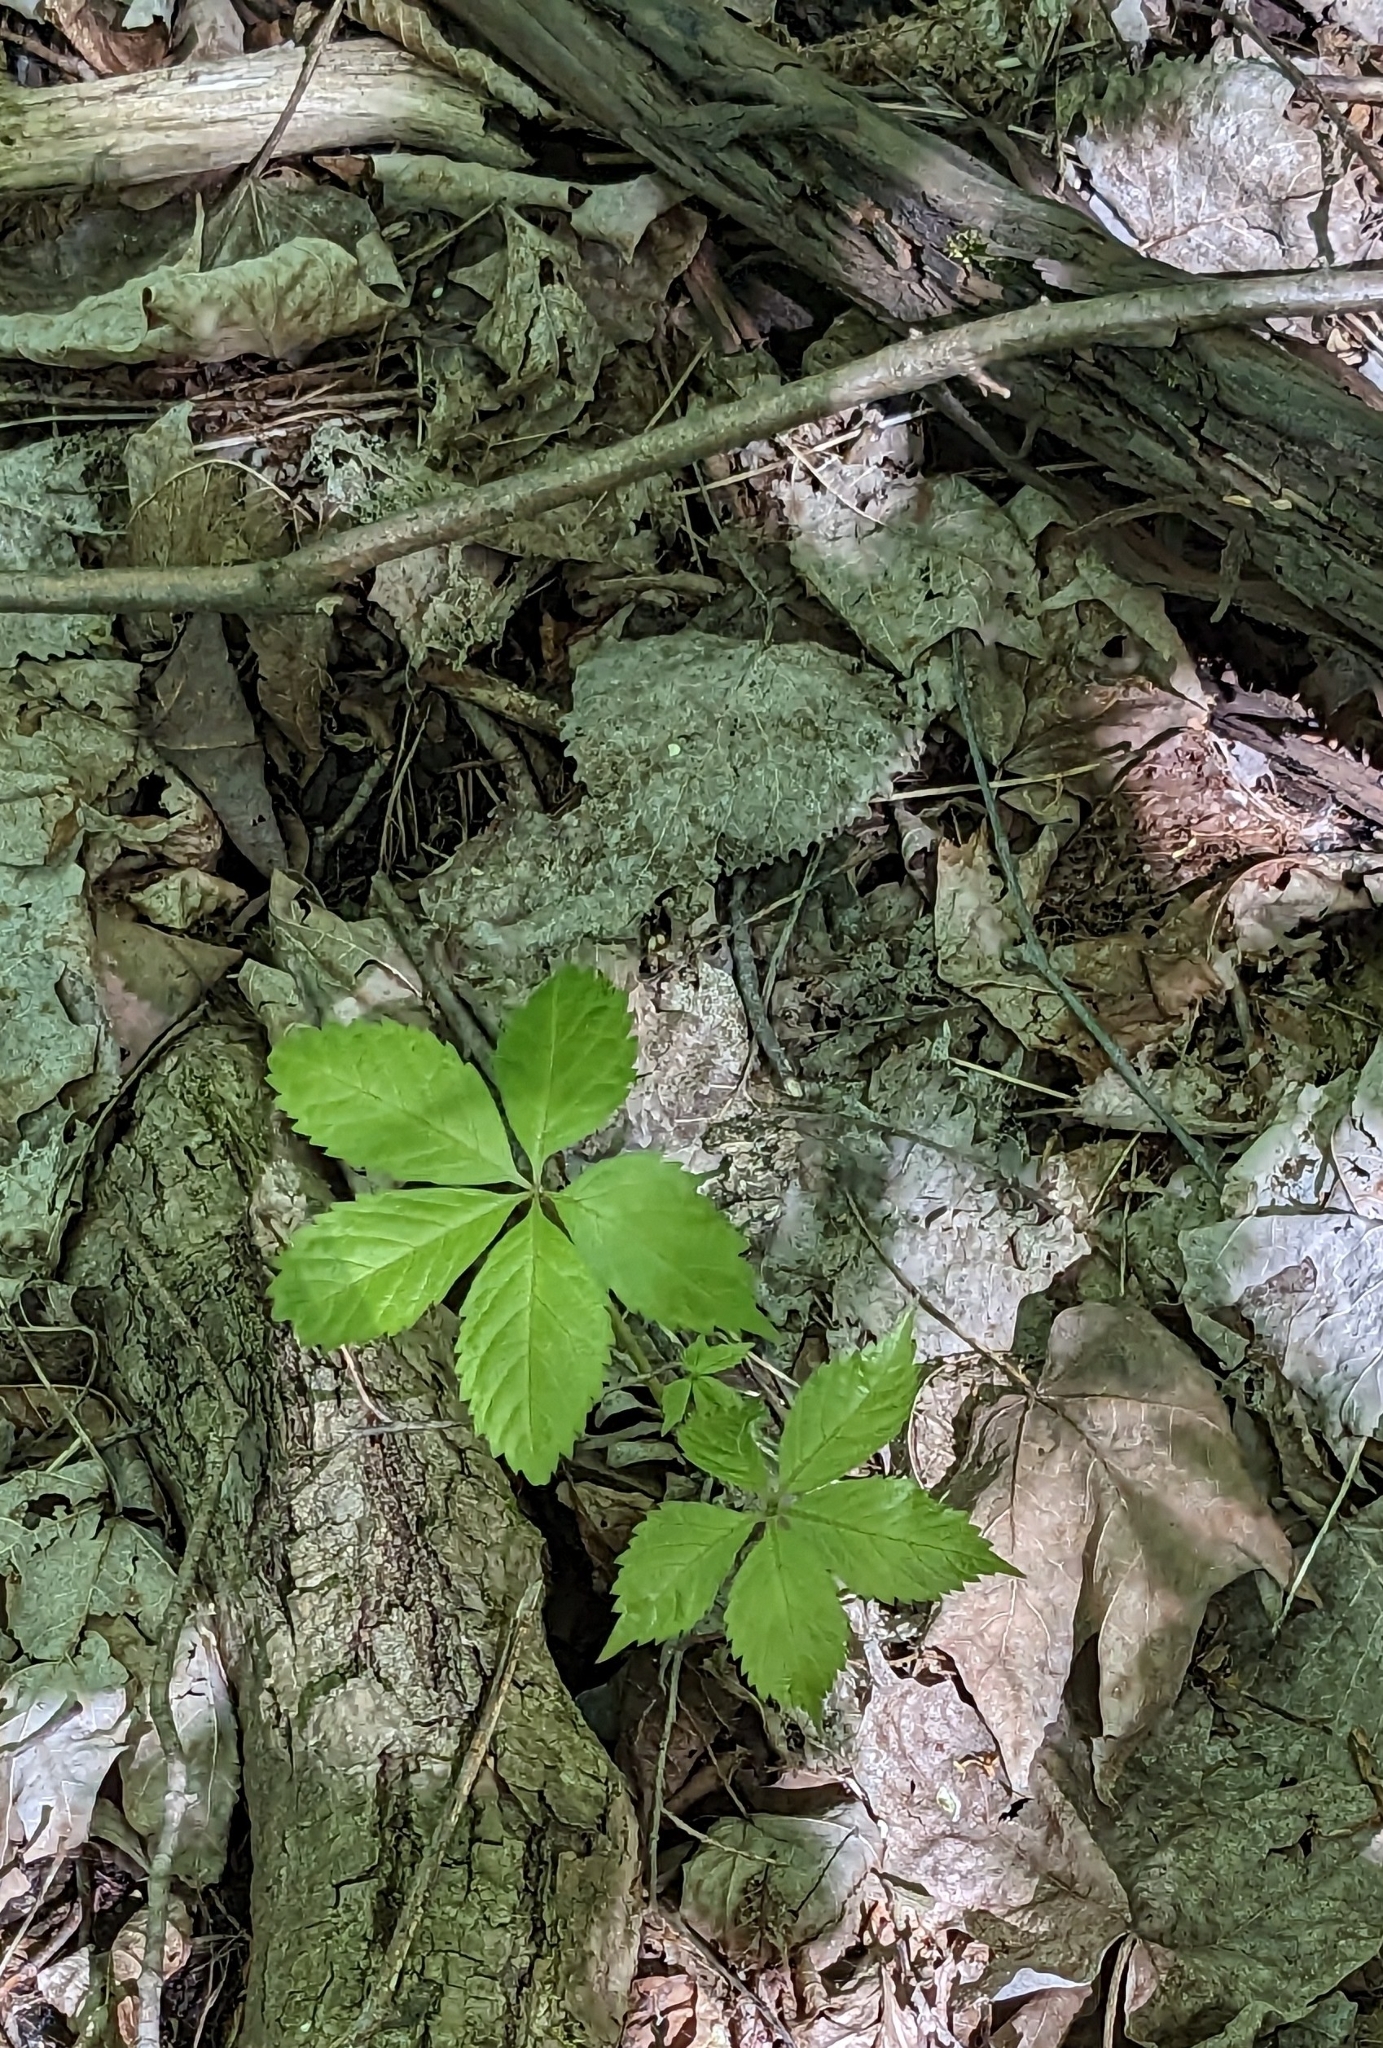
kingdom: Plantae
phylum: Tracheophyta
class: Magnoliopsida
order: Vitales
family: Vitaceae
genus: Parthenocissus
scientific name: Parthenocissus
